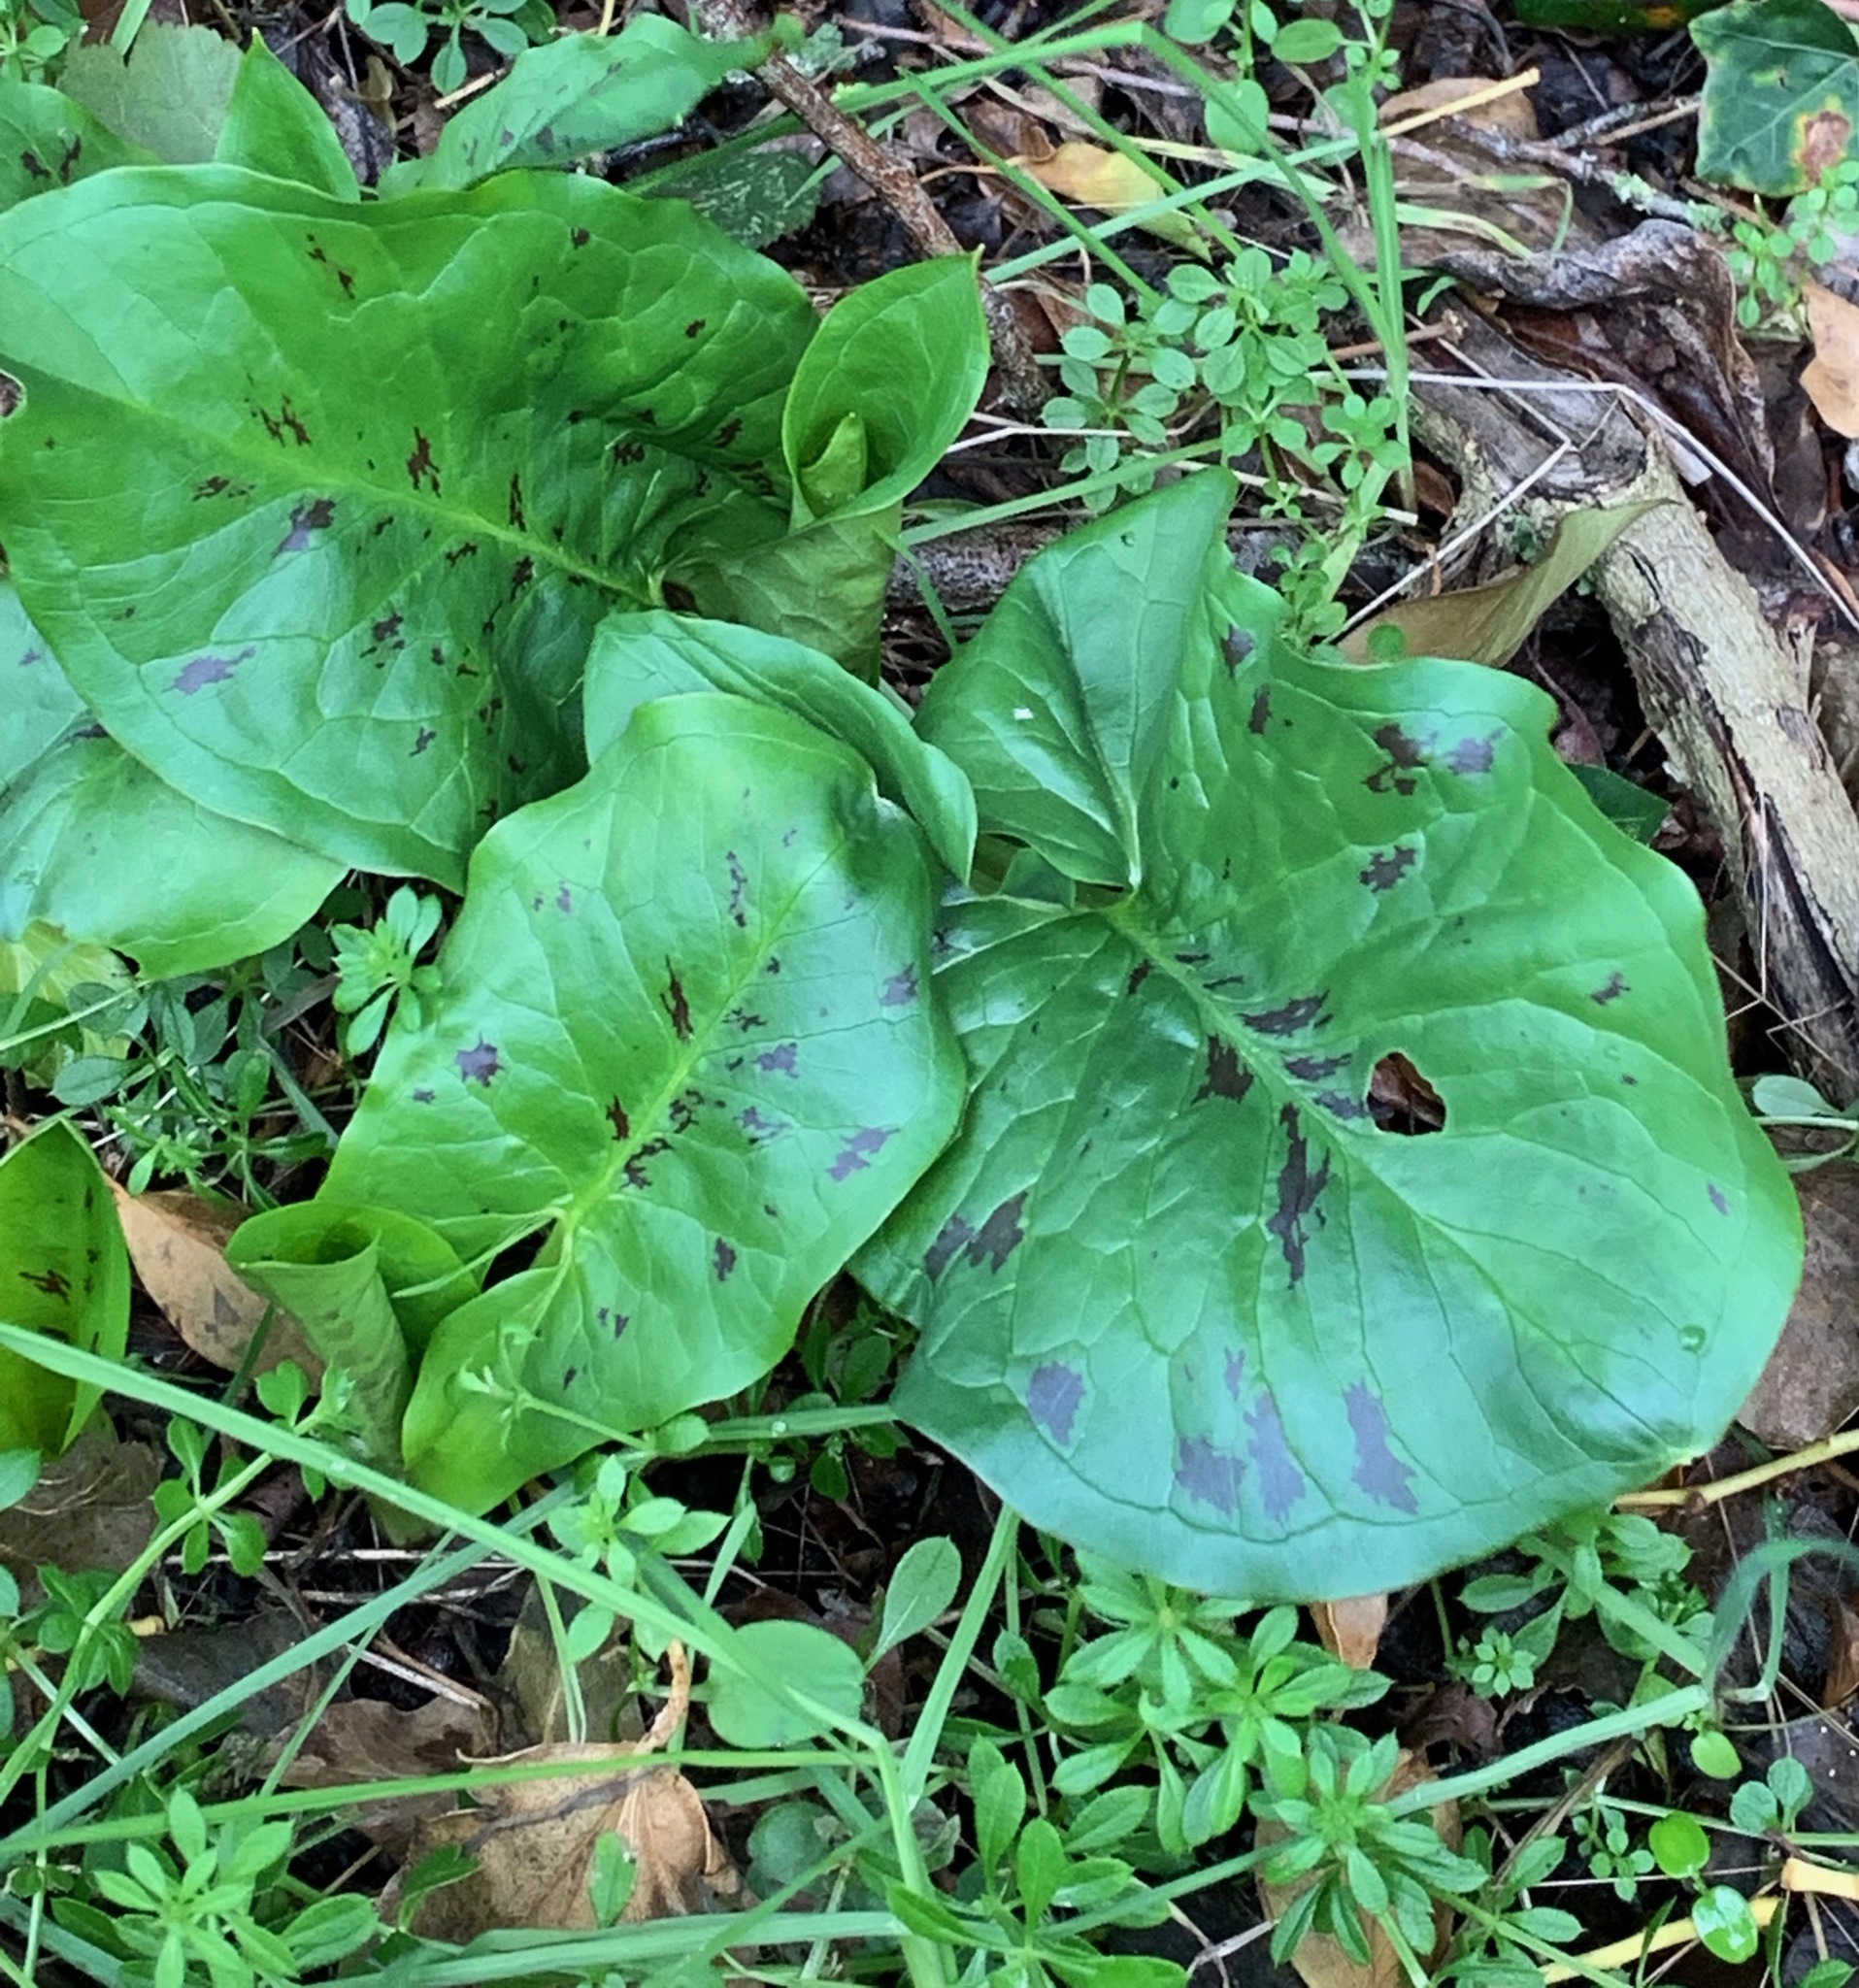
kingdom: Plantae
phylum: Tracheophyta
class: Liliopsida
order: Alismatales
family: Araceae
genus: Arum
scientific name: Arum maculatum
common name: Lords-and-ladies
